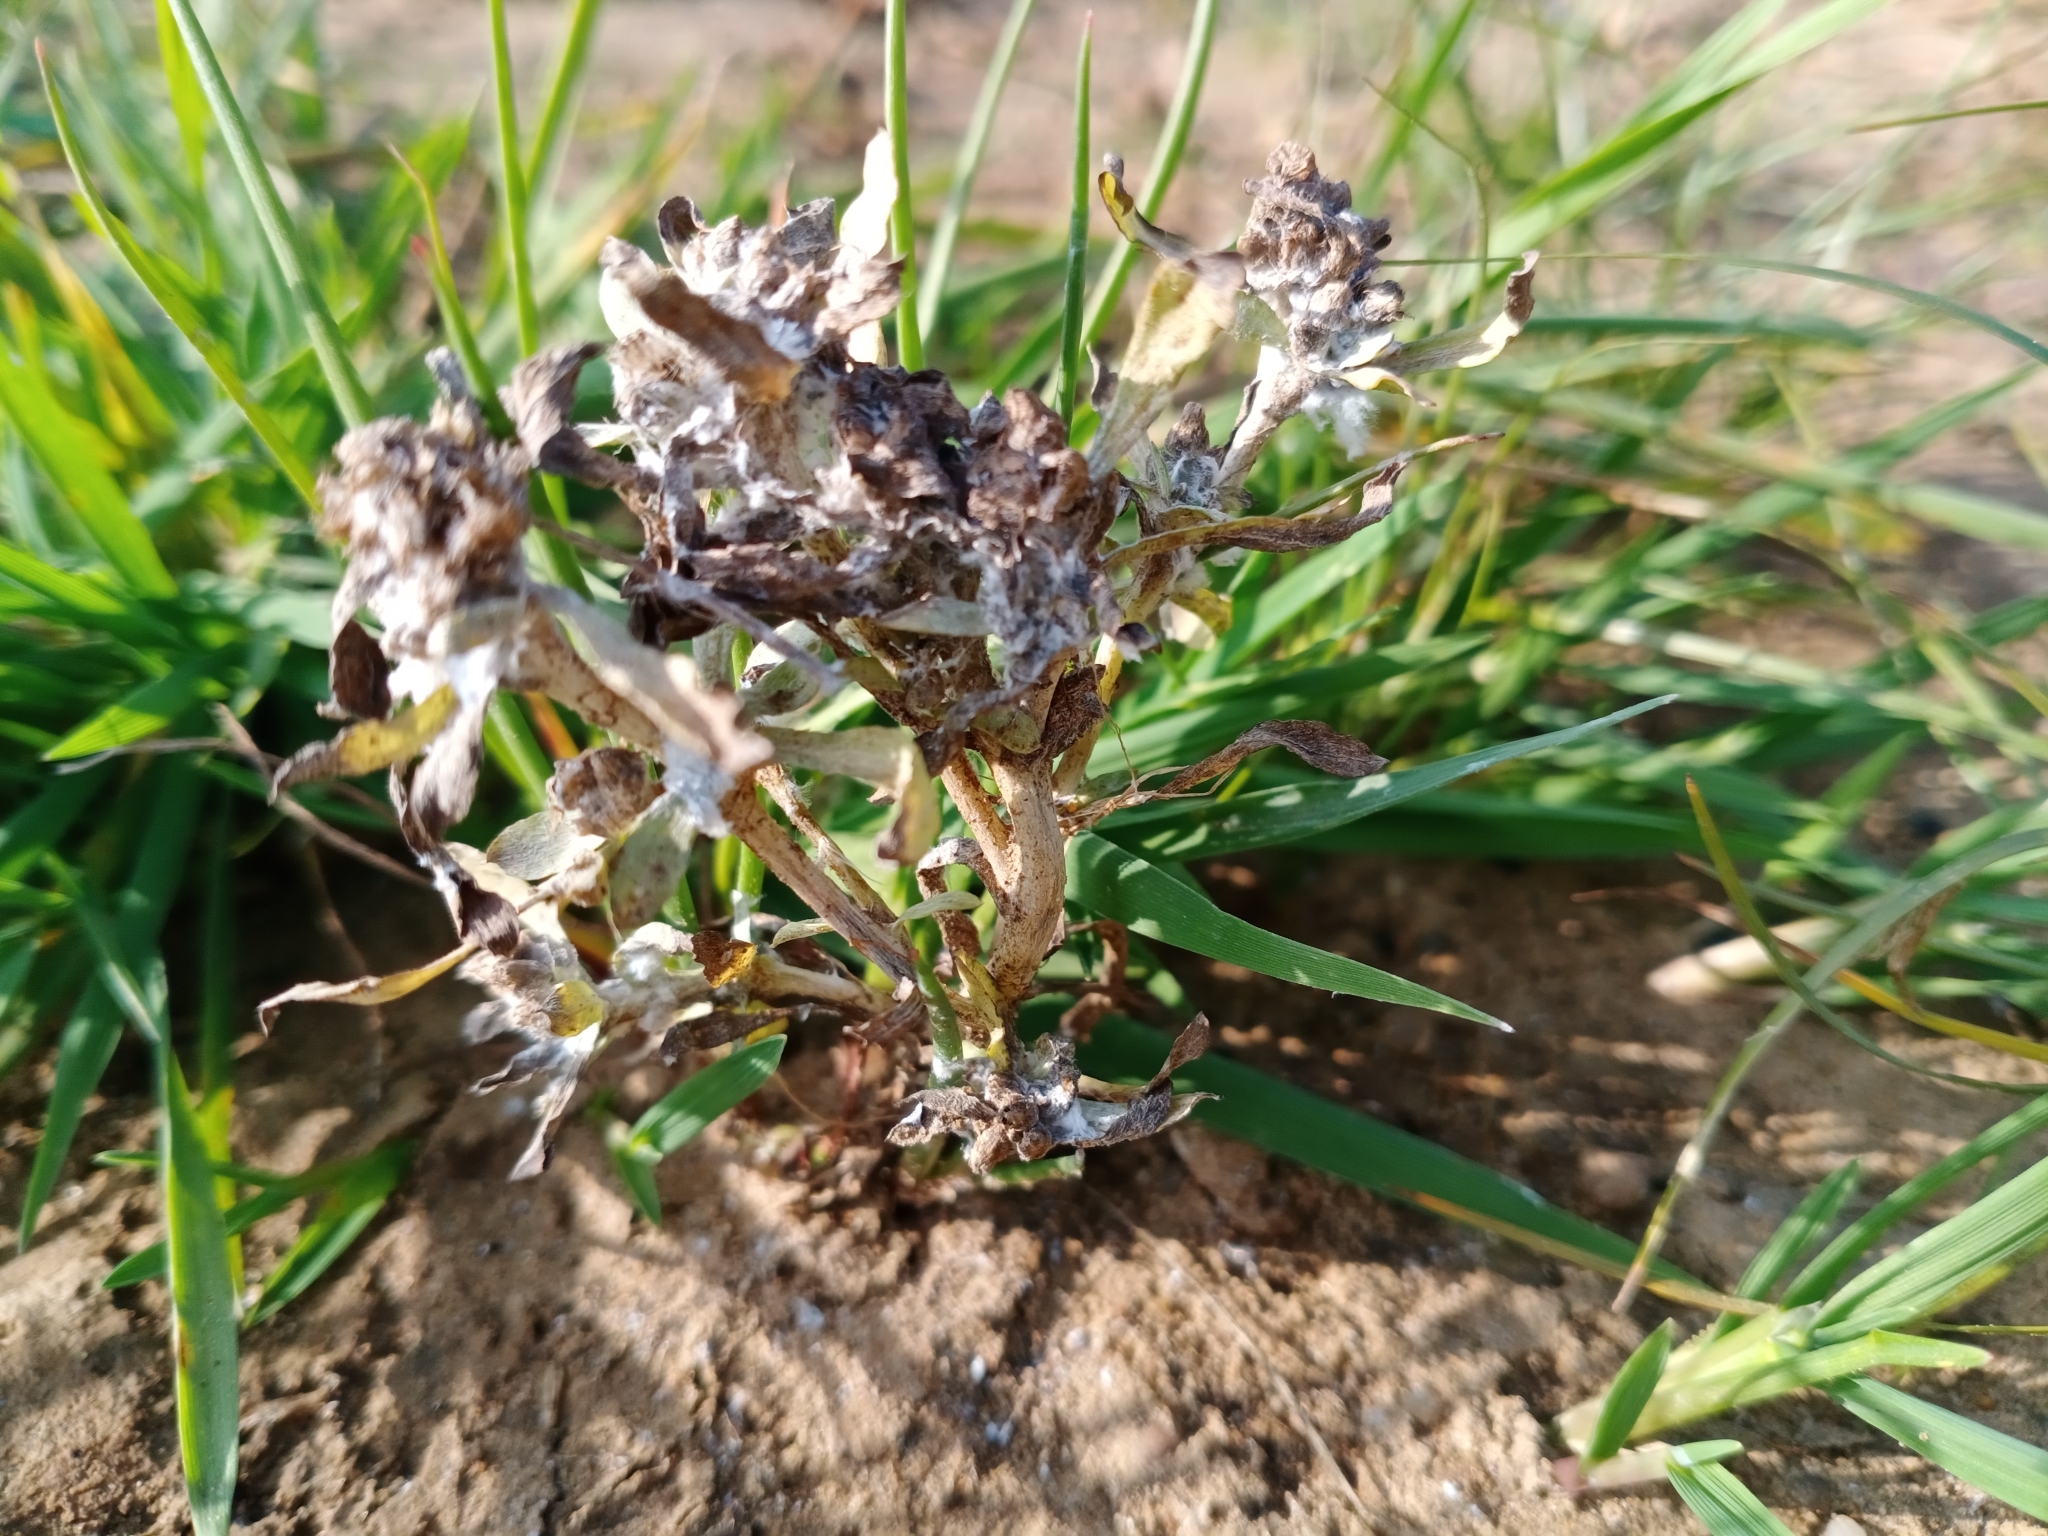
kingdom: Plantae
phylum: Tracheophyta
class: Magnoliopsida
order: Asterales
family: Asteraceae
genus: Gnaphalium
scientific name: Gnaphalium uliginosum
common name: Marsh cudweed
